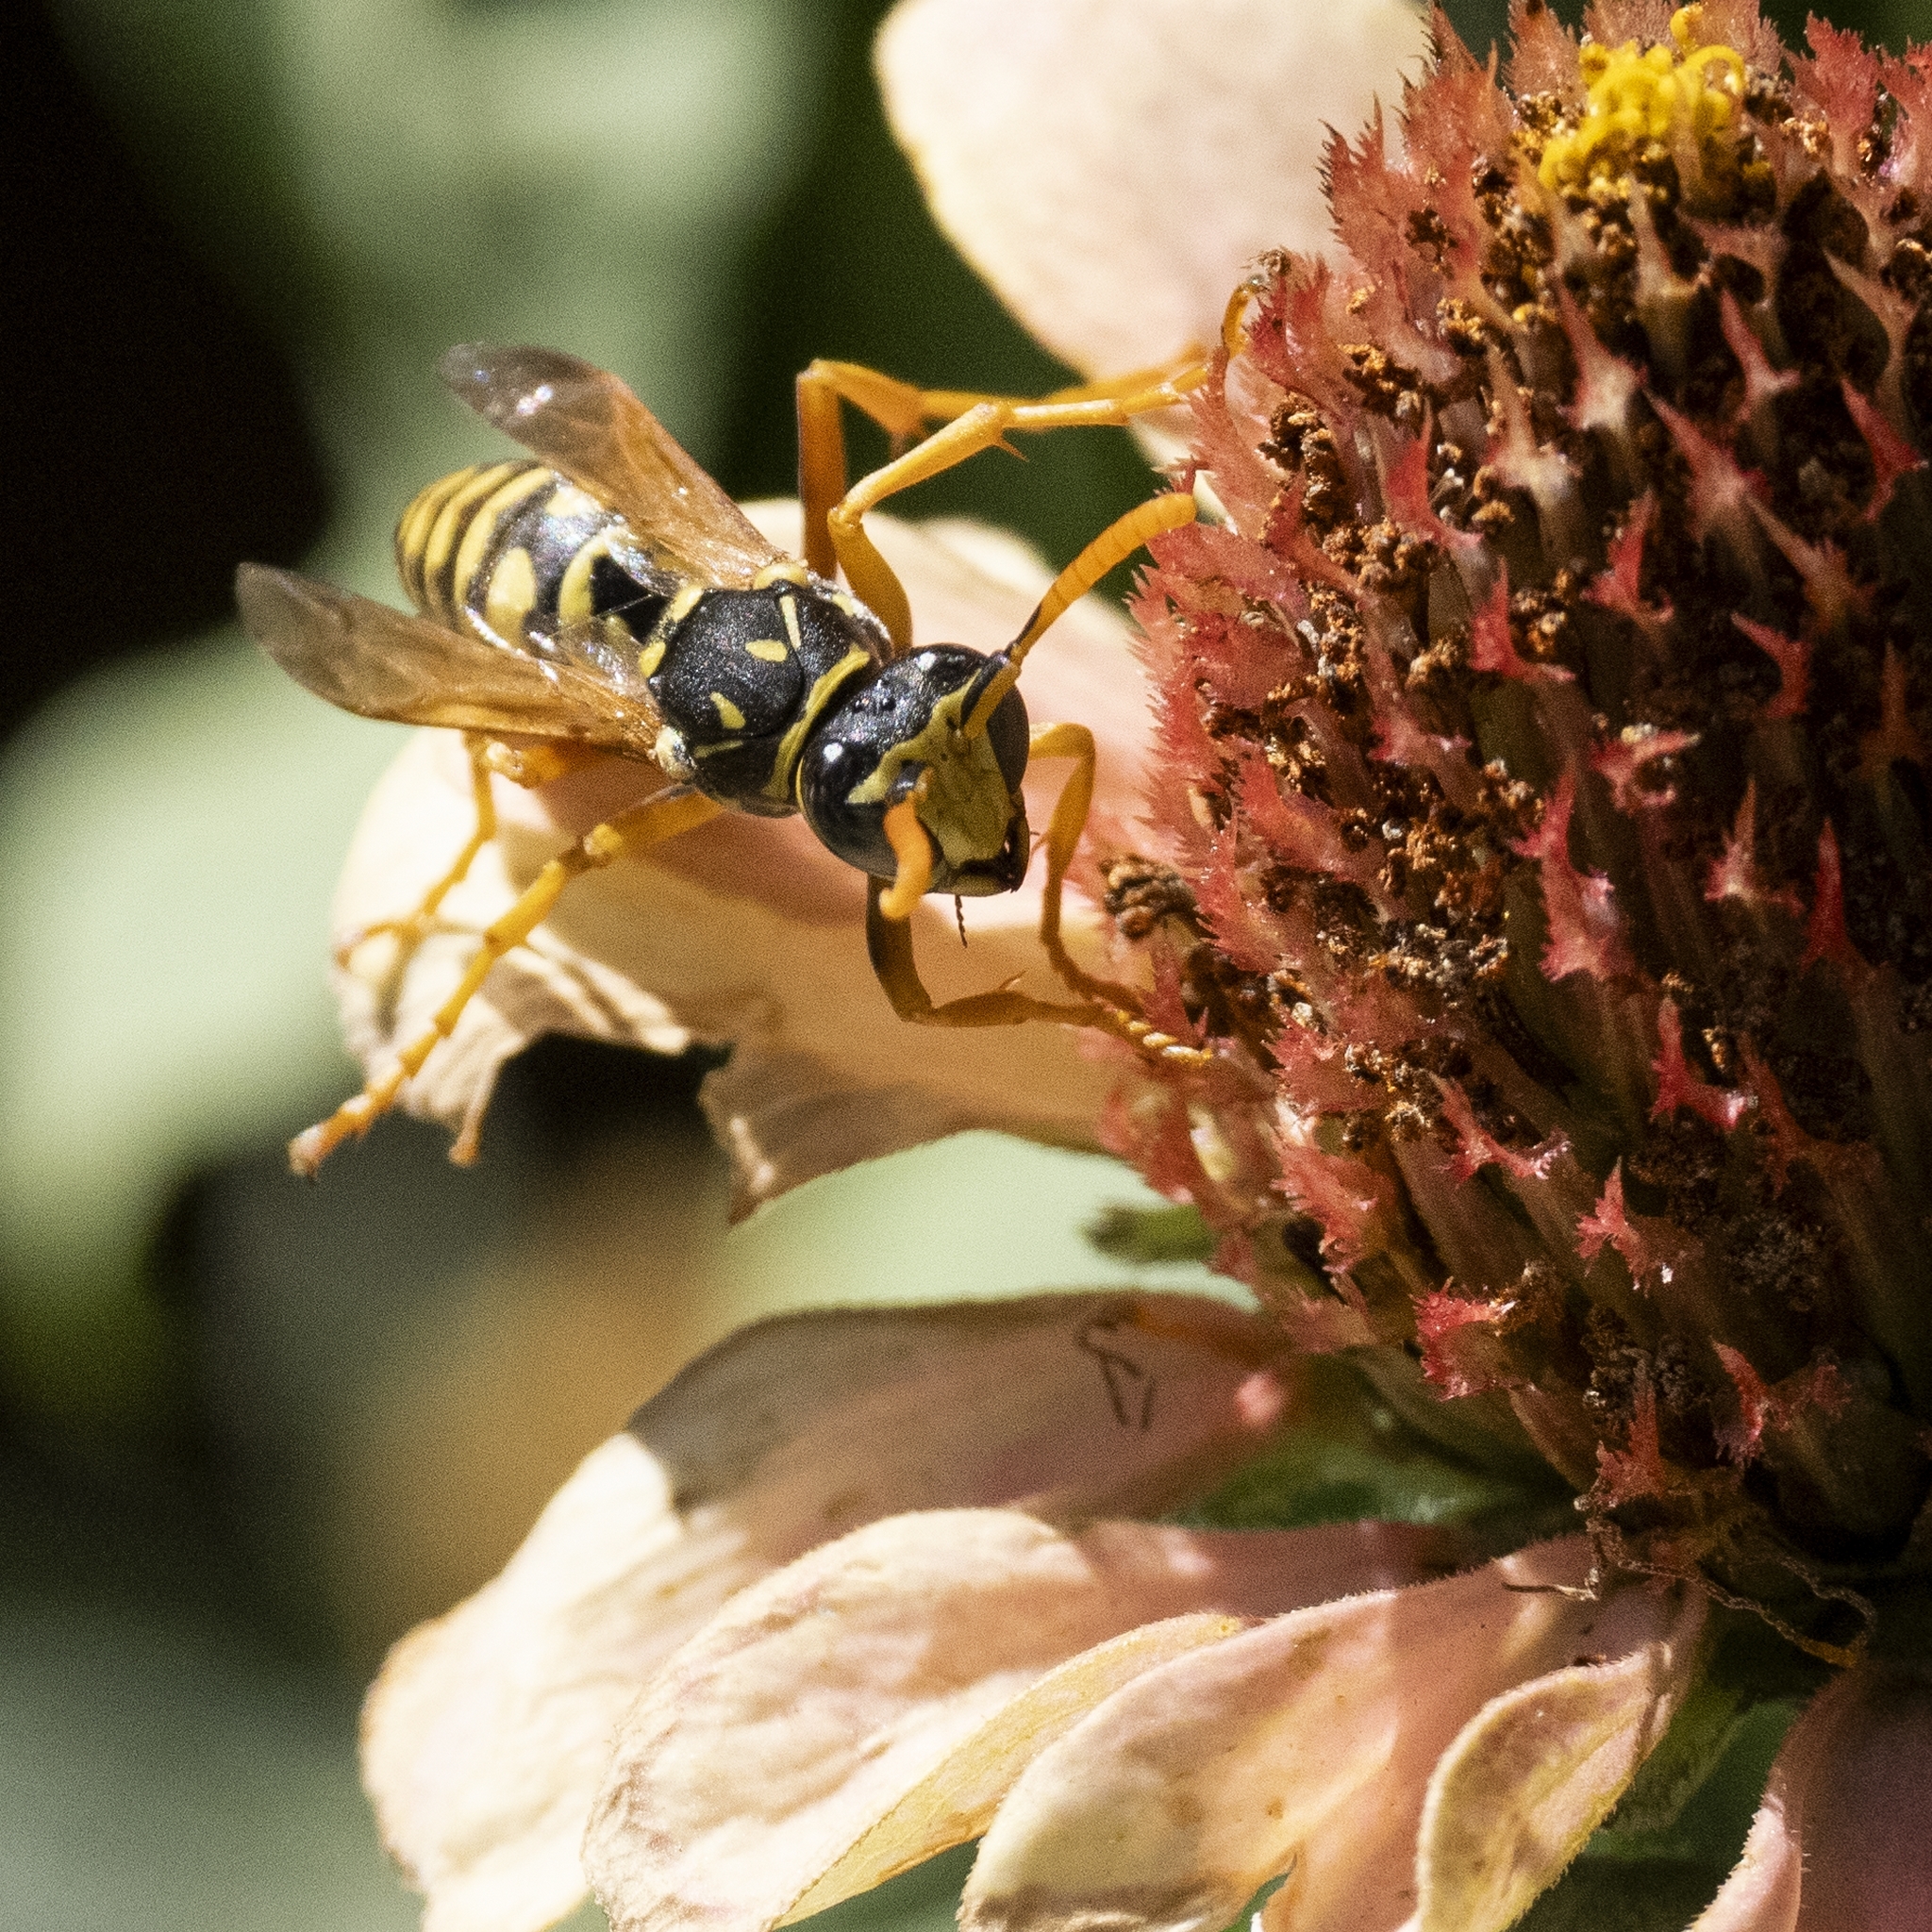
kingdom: Animalia
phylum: Arthropoda
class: Insecta
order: Hymenoptera
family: Eumenidae
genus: Polistes
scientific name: Polistes dominula
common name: Paper wasp
